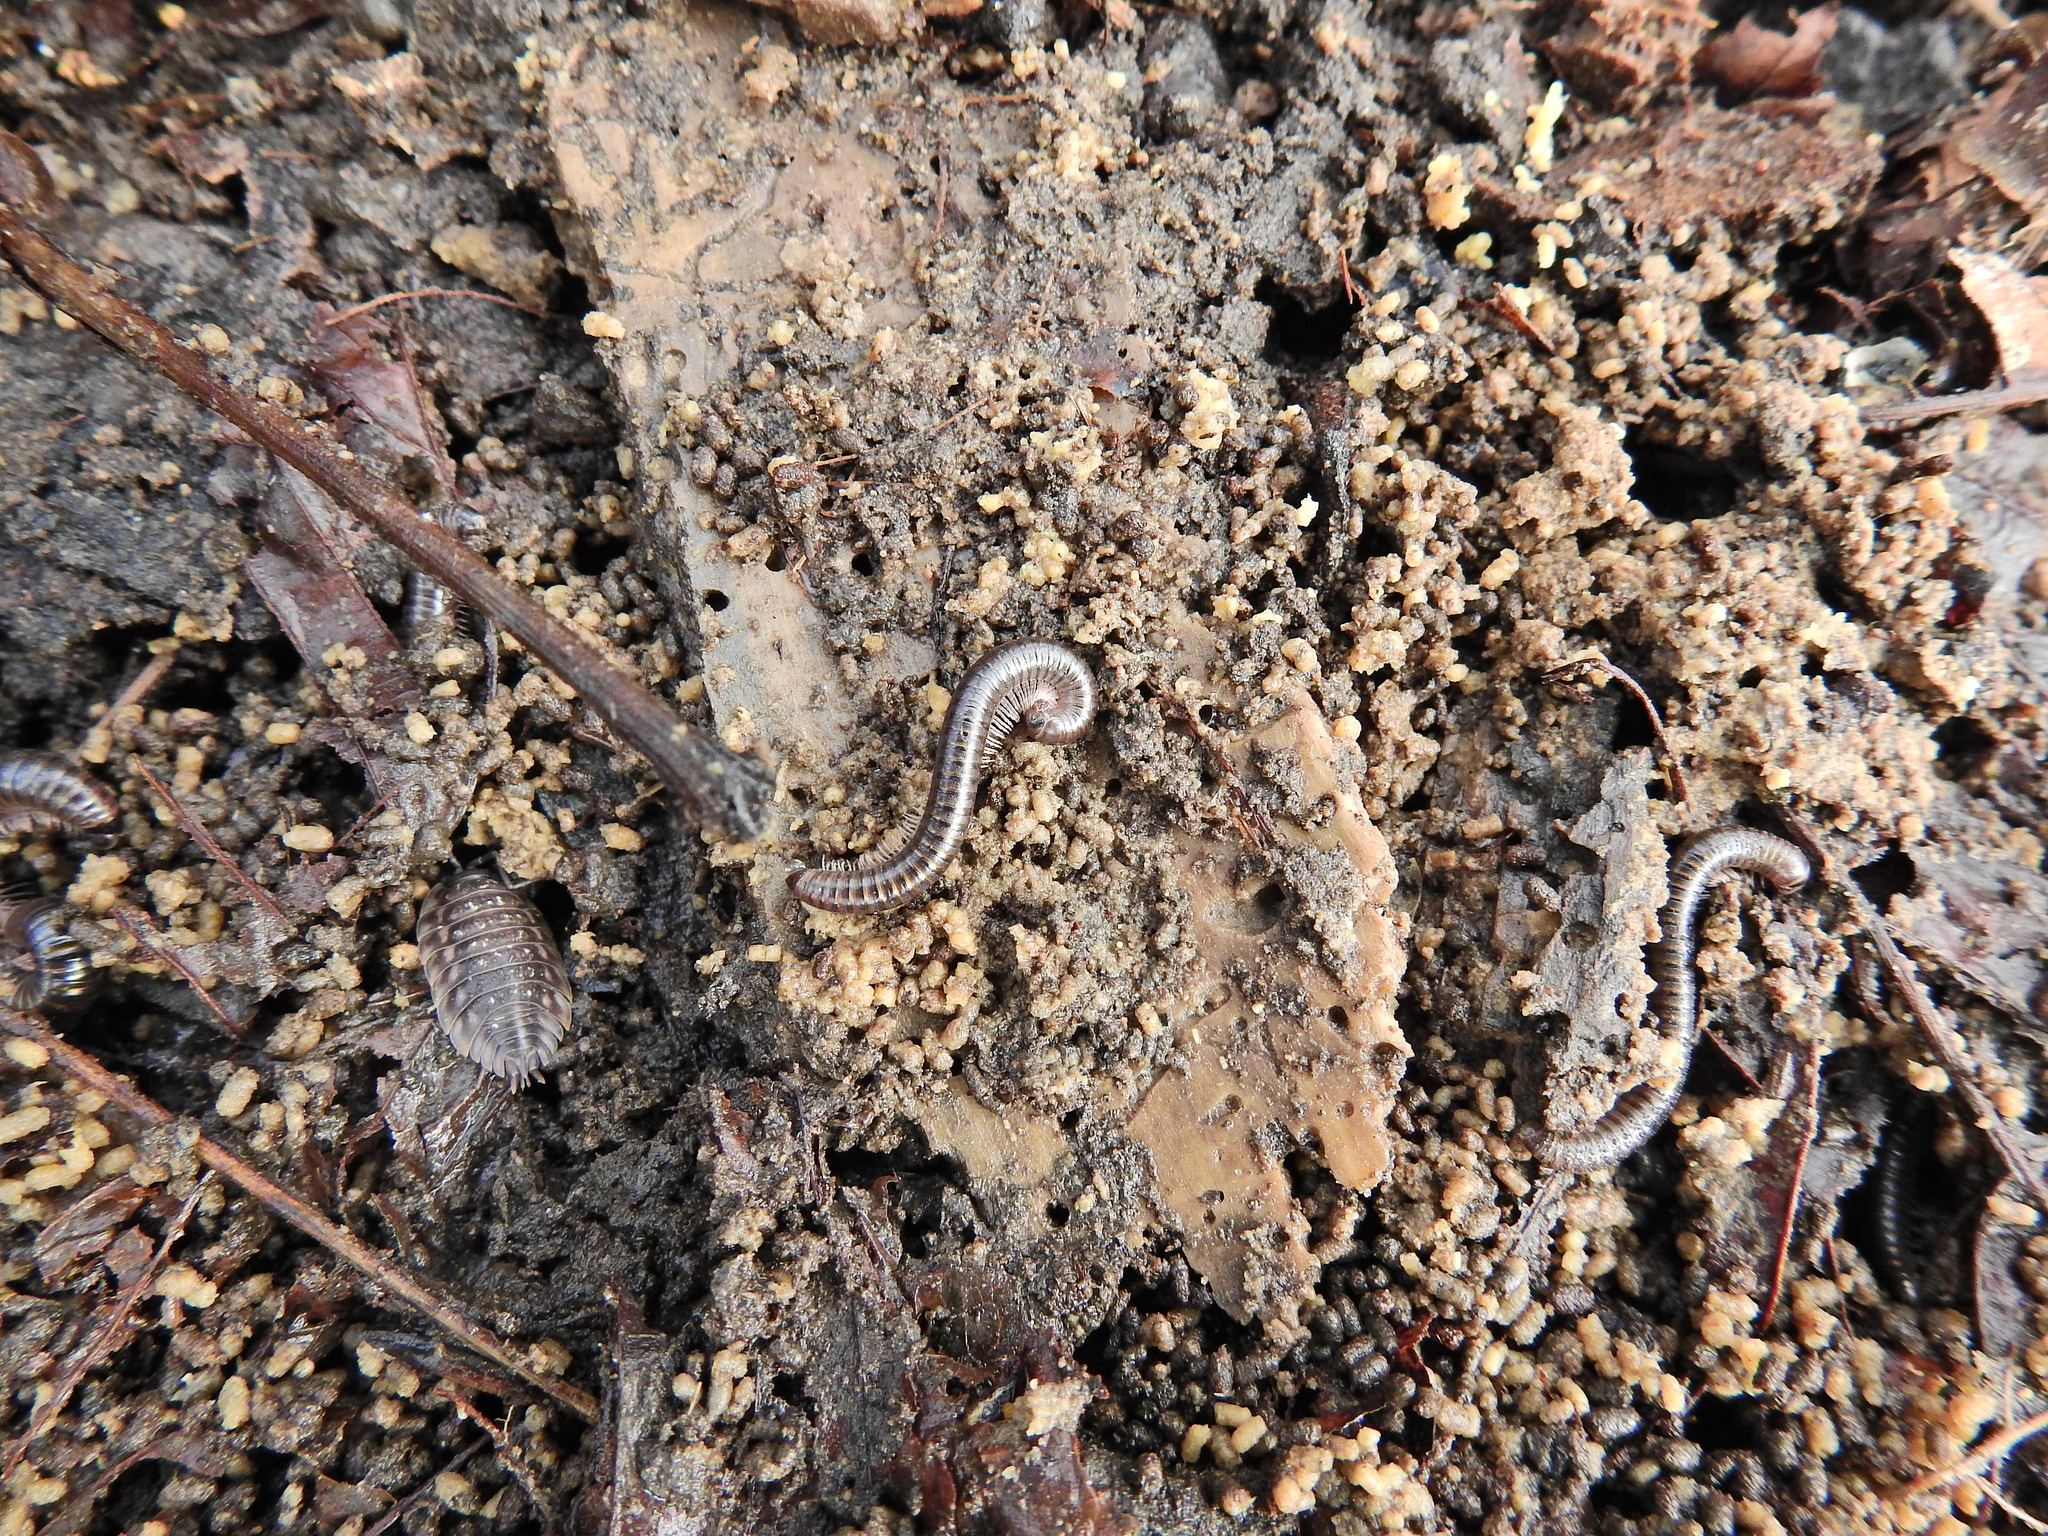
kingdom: Animalia
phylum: Arthropoda
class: Diplopoda
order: Julida
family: Julidae
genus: Cylindroiulus
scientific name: Cylindroiulus caeruleocinctus
